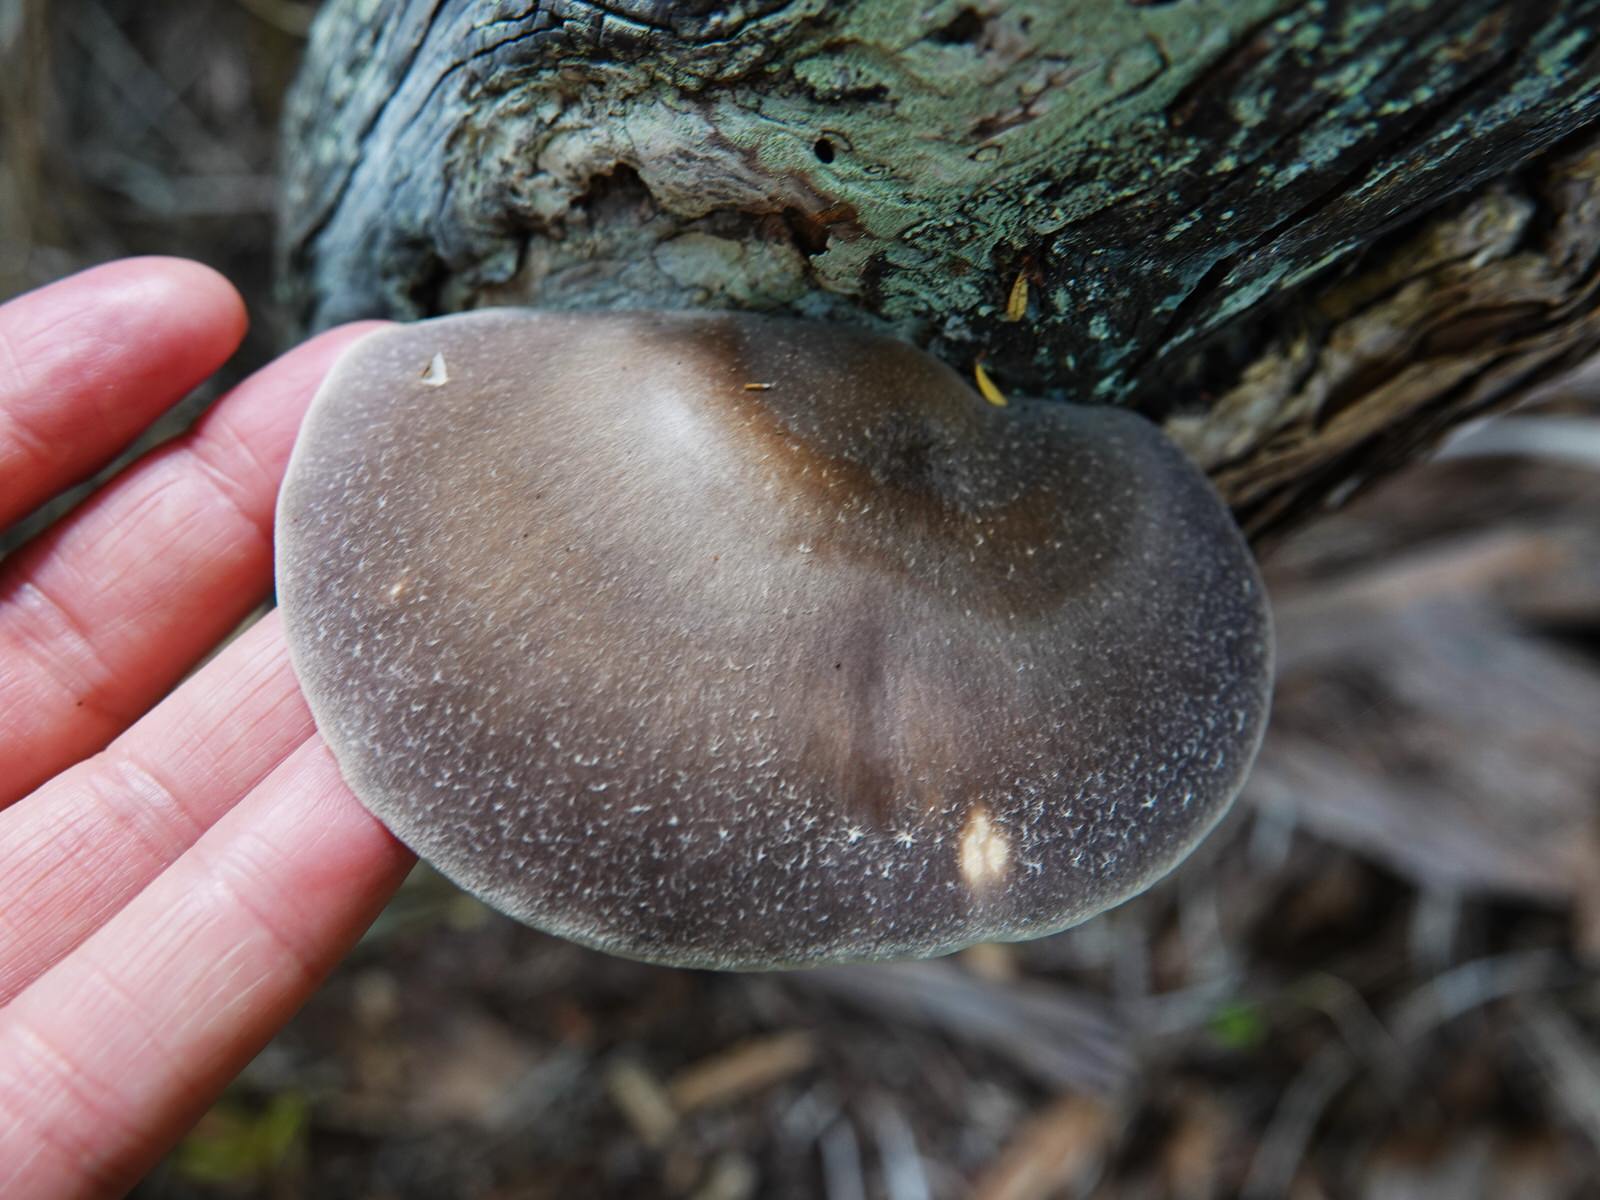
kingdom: Fungi
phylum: Basidiomycota
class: Agaricomycetes
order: Agaricales
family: Pleurotaceae
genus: Pleurotus
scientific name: Pleurotus australis
